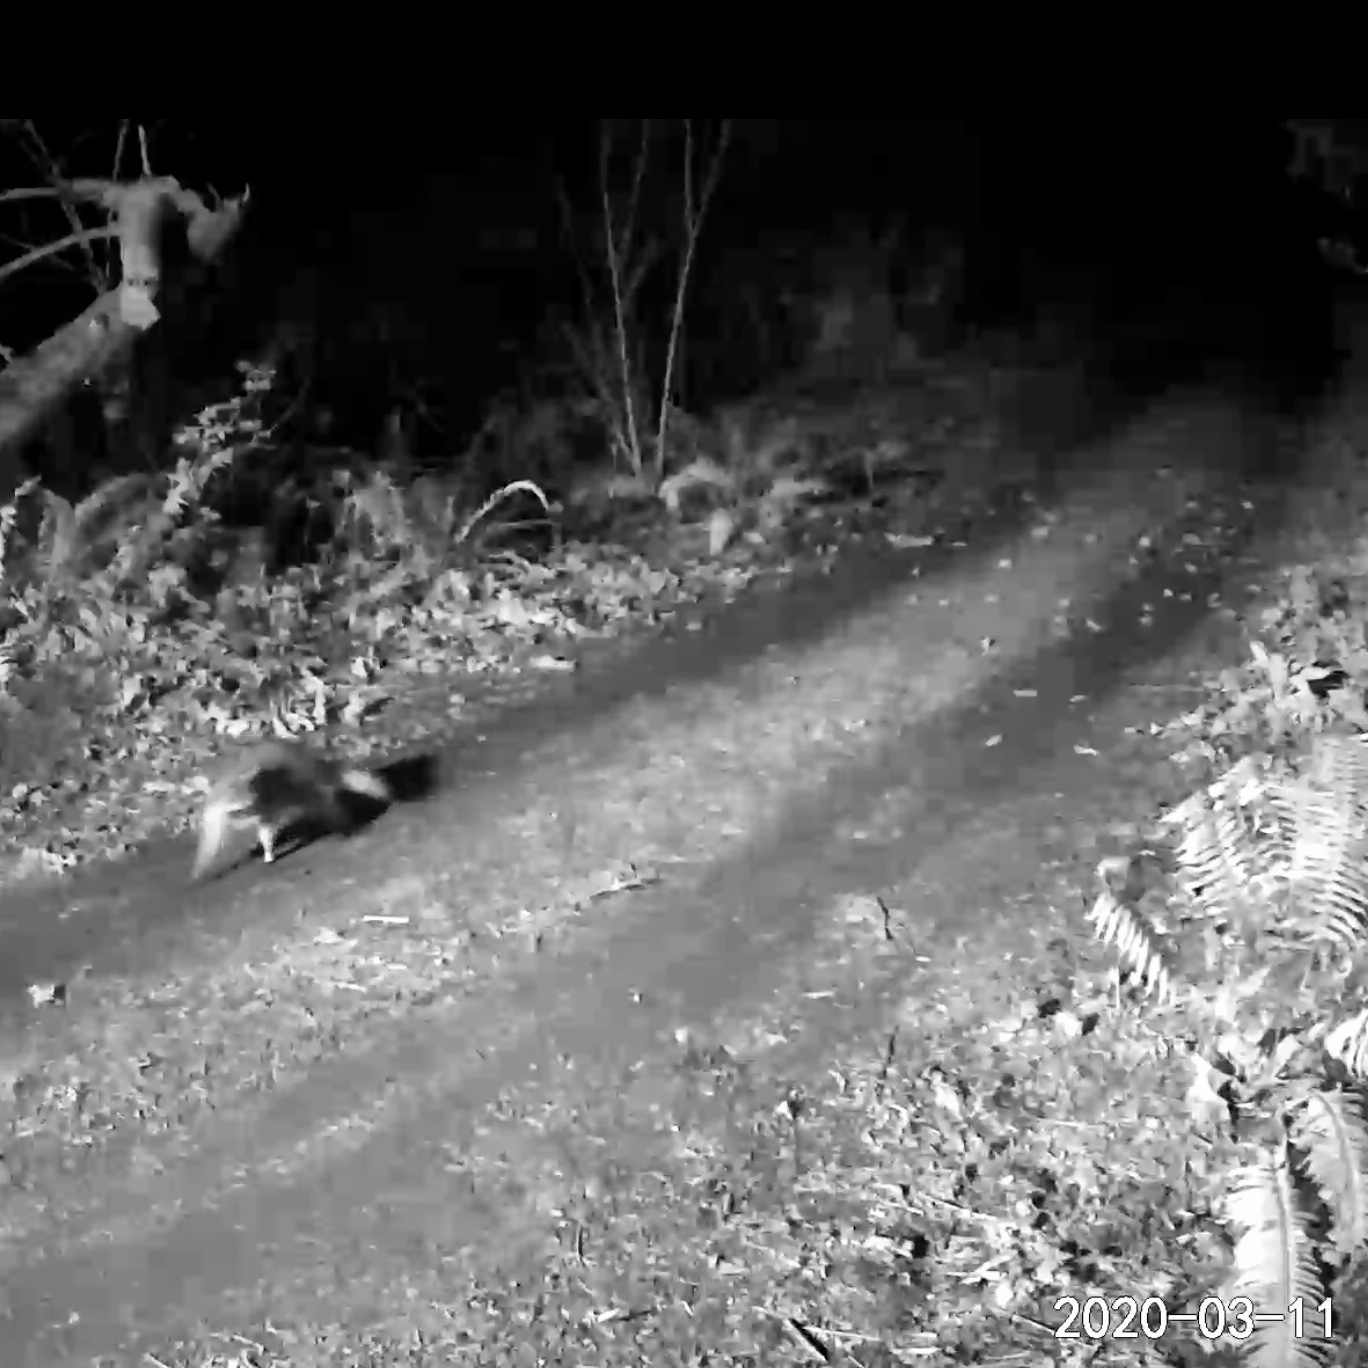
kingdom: Animalia
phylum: Chordata
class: Mammalia
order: Carnivora
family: Procyonidae
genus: Procyon
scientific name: Procyon lotor
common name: Raccoon
